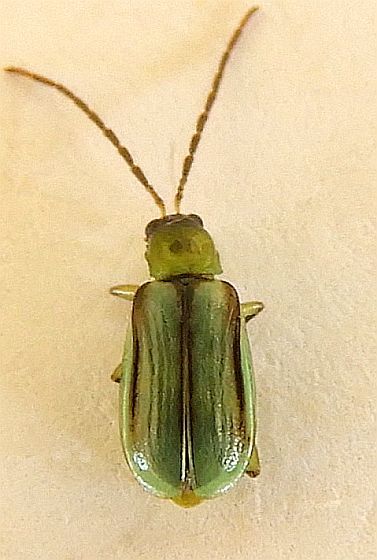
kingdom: Animalia
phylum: Arthropoda
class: Insecta
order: Coleoptera
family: Chrysomelidae
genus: Diabrotica
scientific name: Diabrotica longicornis
